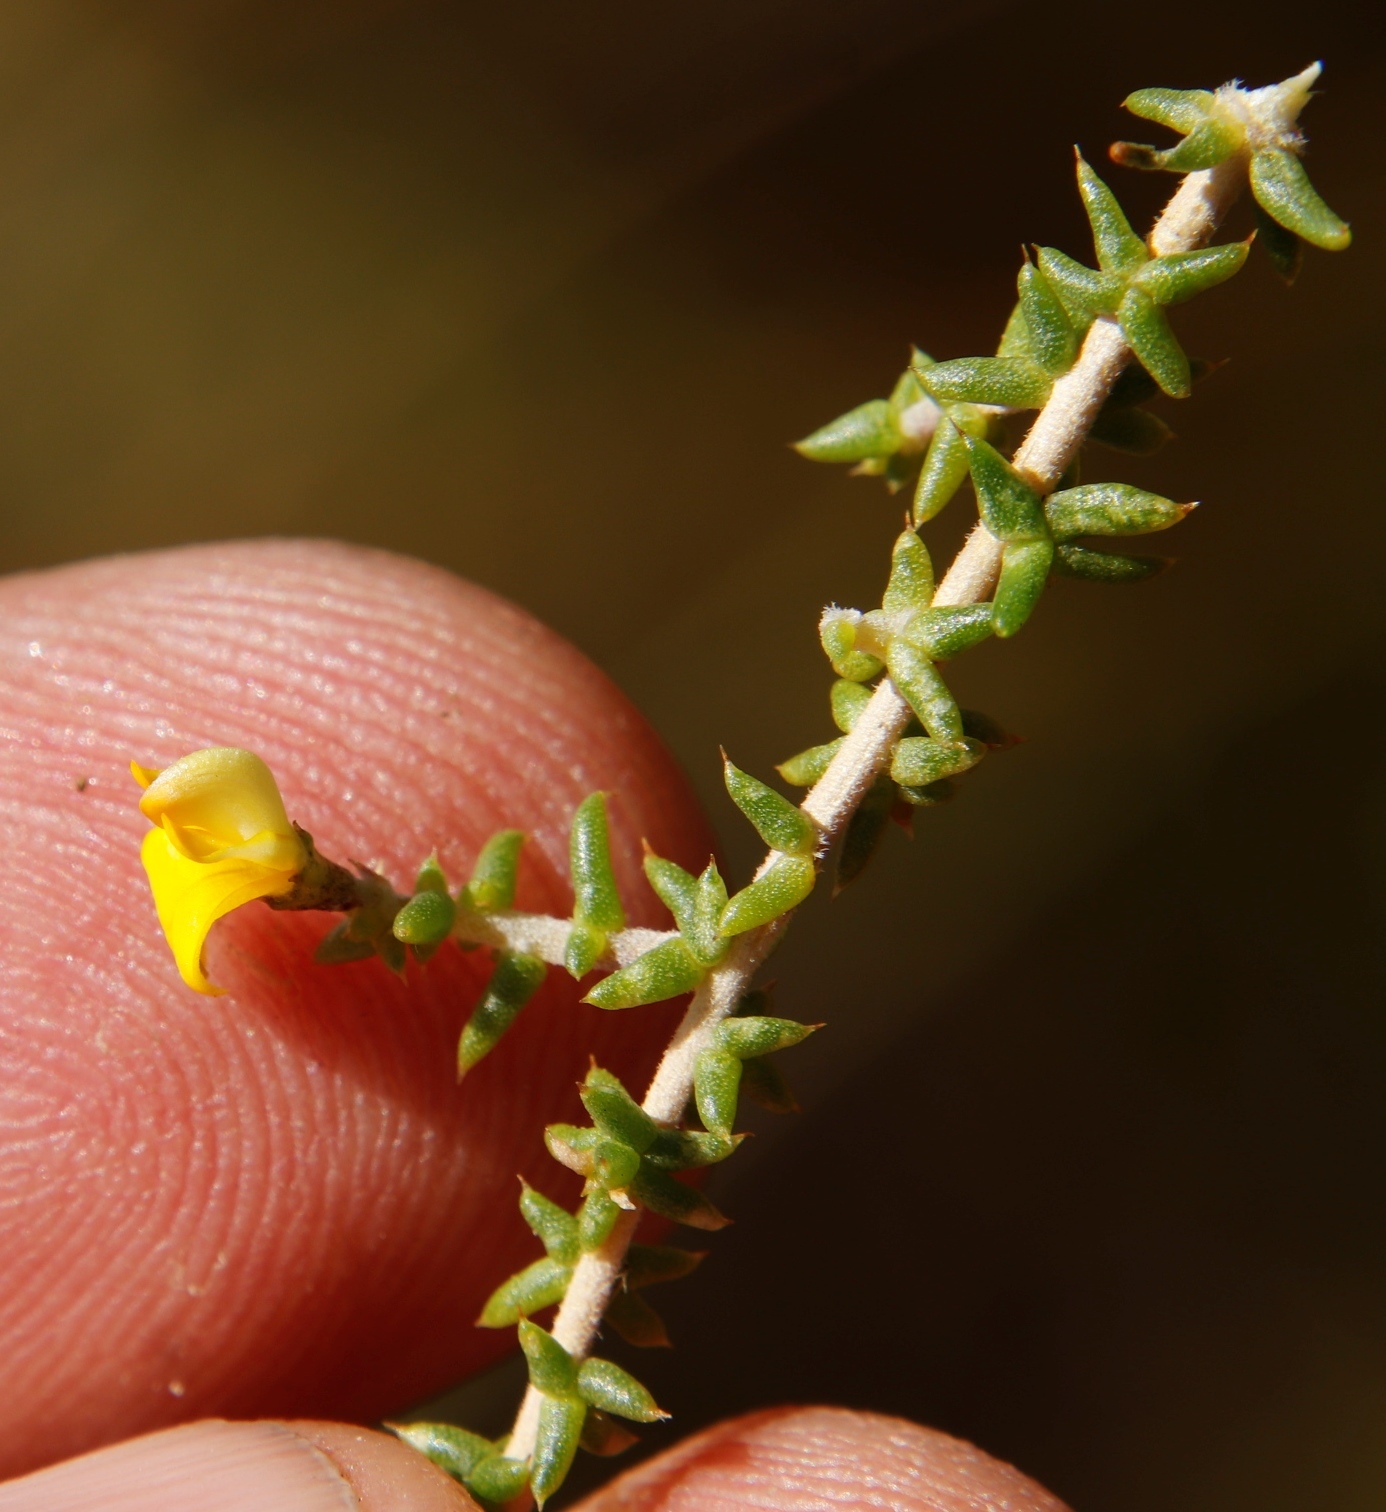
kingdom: Plantae
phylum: Tracheophyta
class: Magnoliopsida
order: Fabales
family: Fabaceae
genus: Aspalathus
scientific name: Aspalathus divaricata
